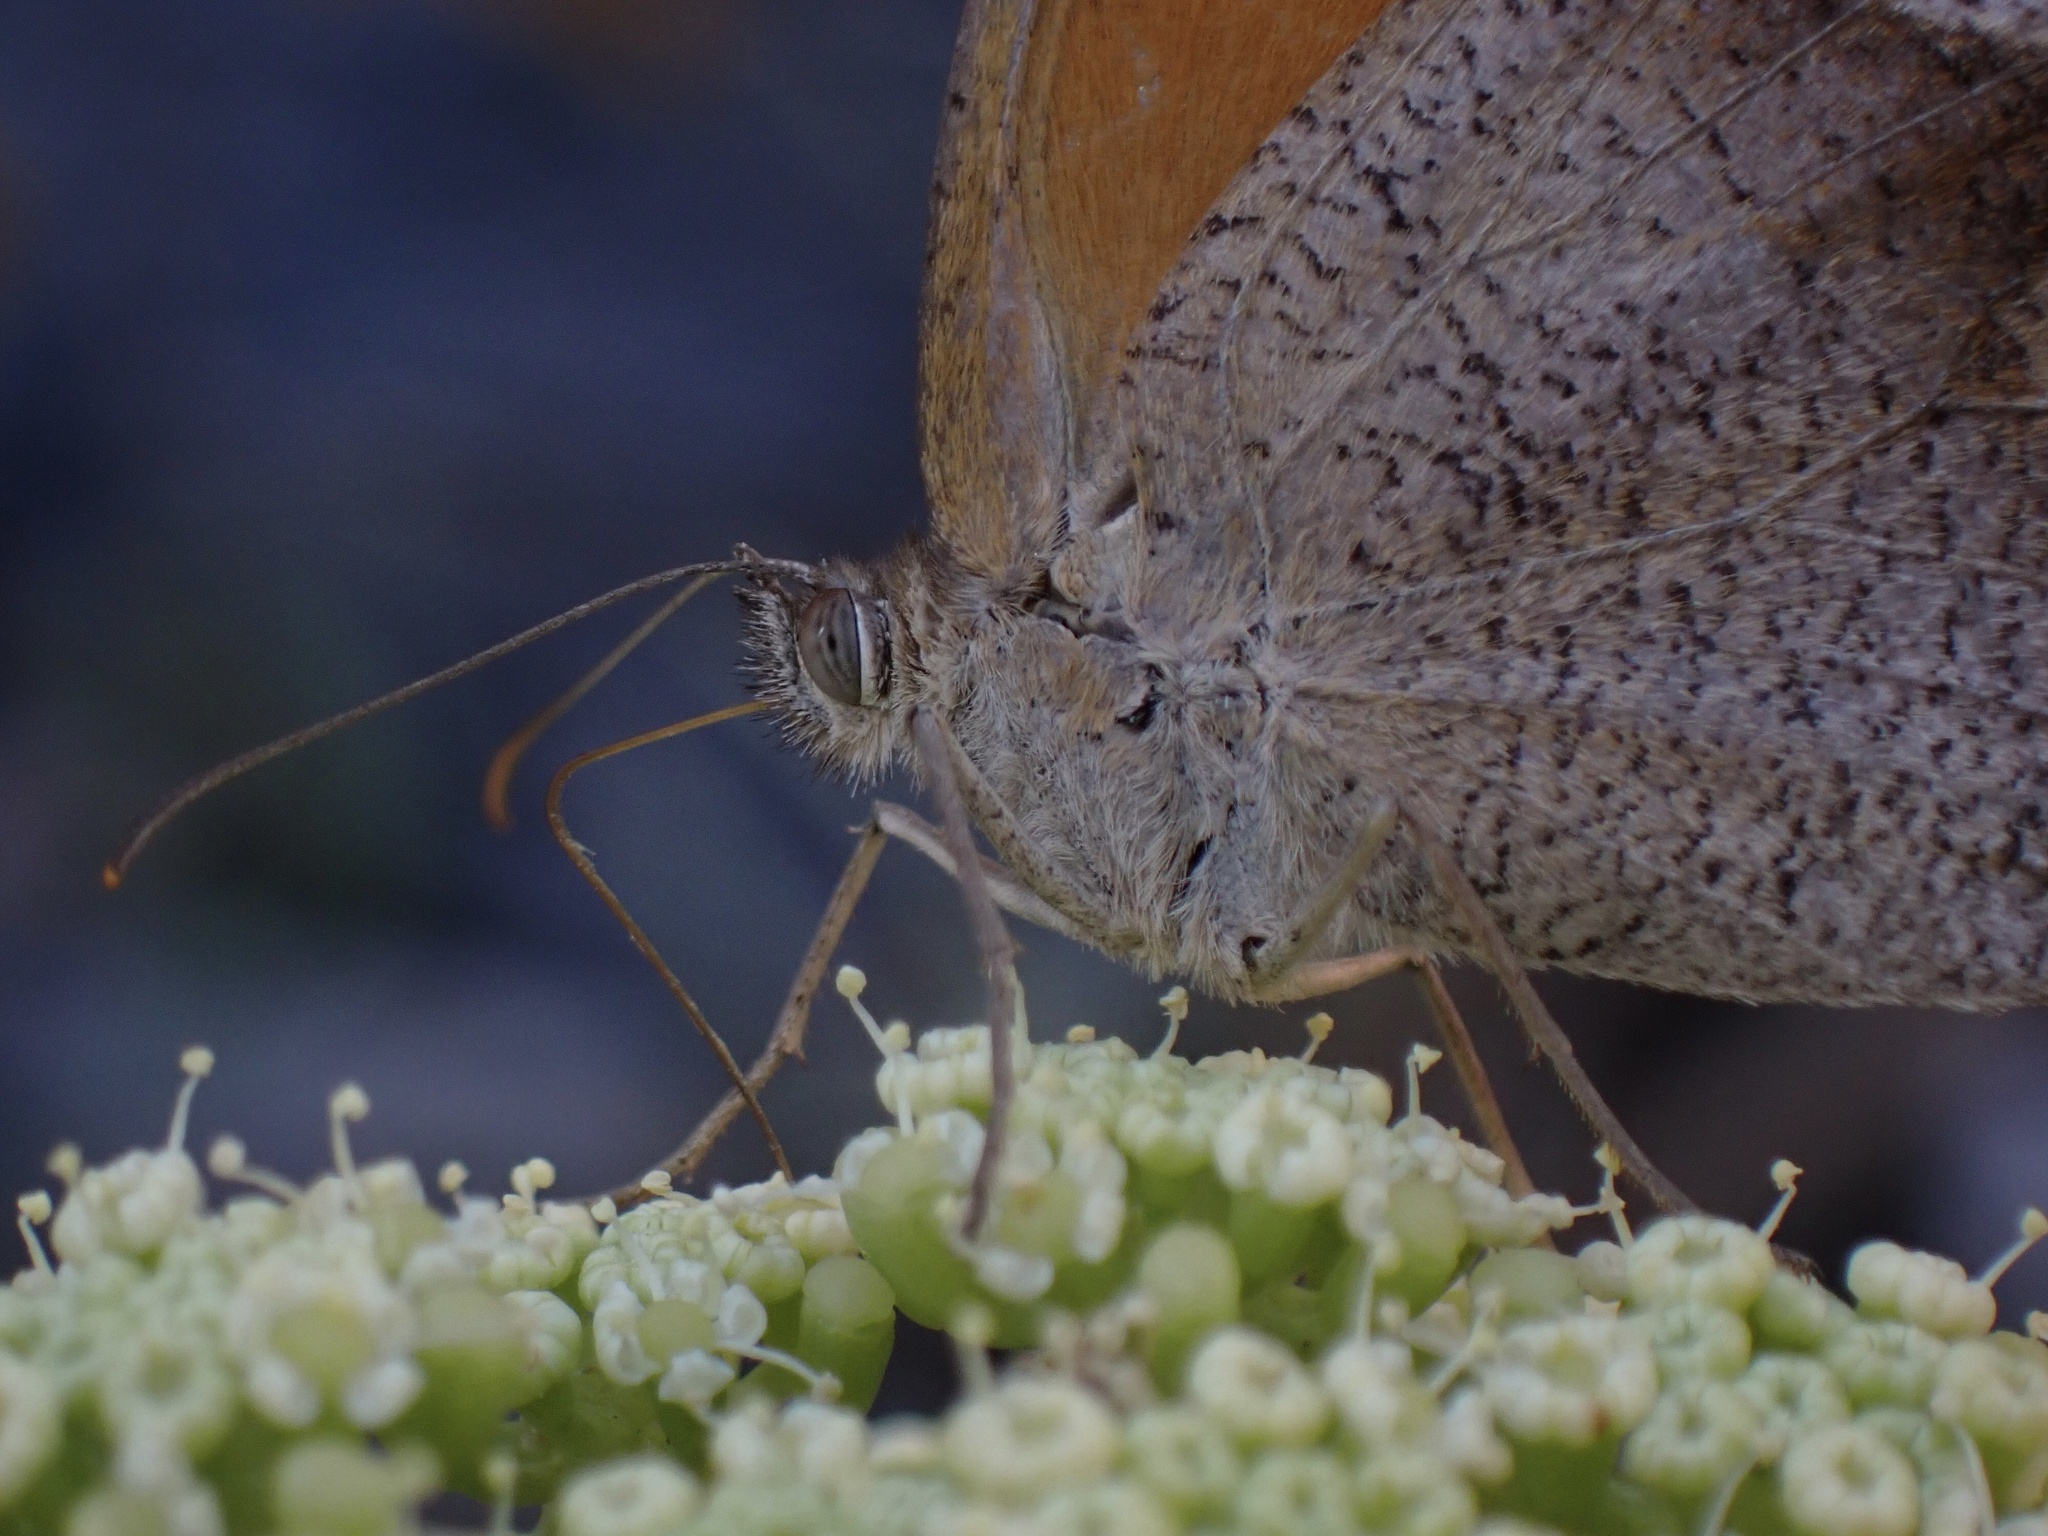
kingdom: Animalia
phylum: Arthropoda
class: Insecta
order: Lepidoptera
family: Nymphalidae
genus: Maniola
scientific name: Maniola jurtina
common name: Meadow brown
